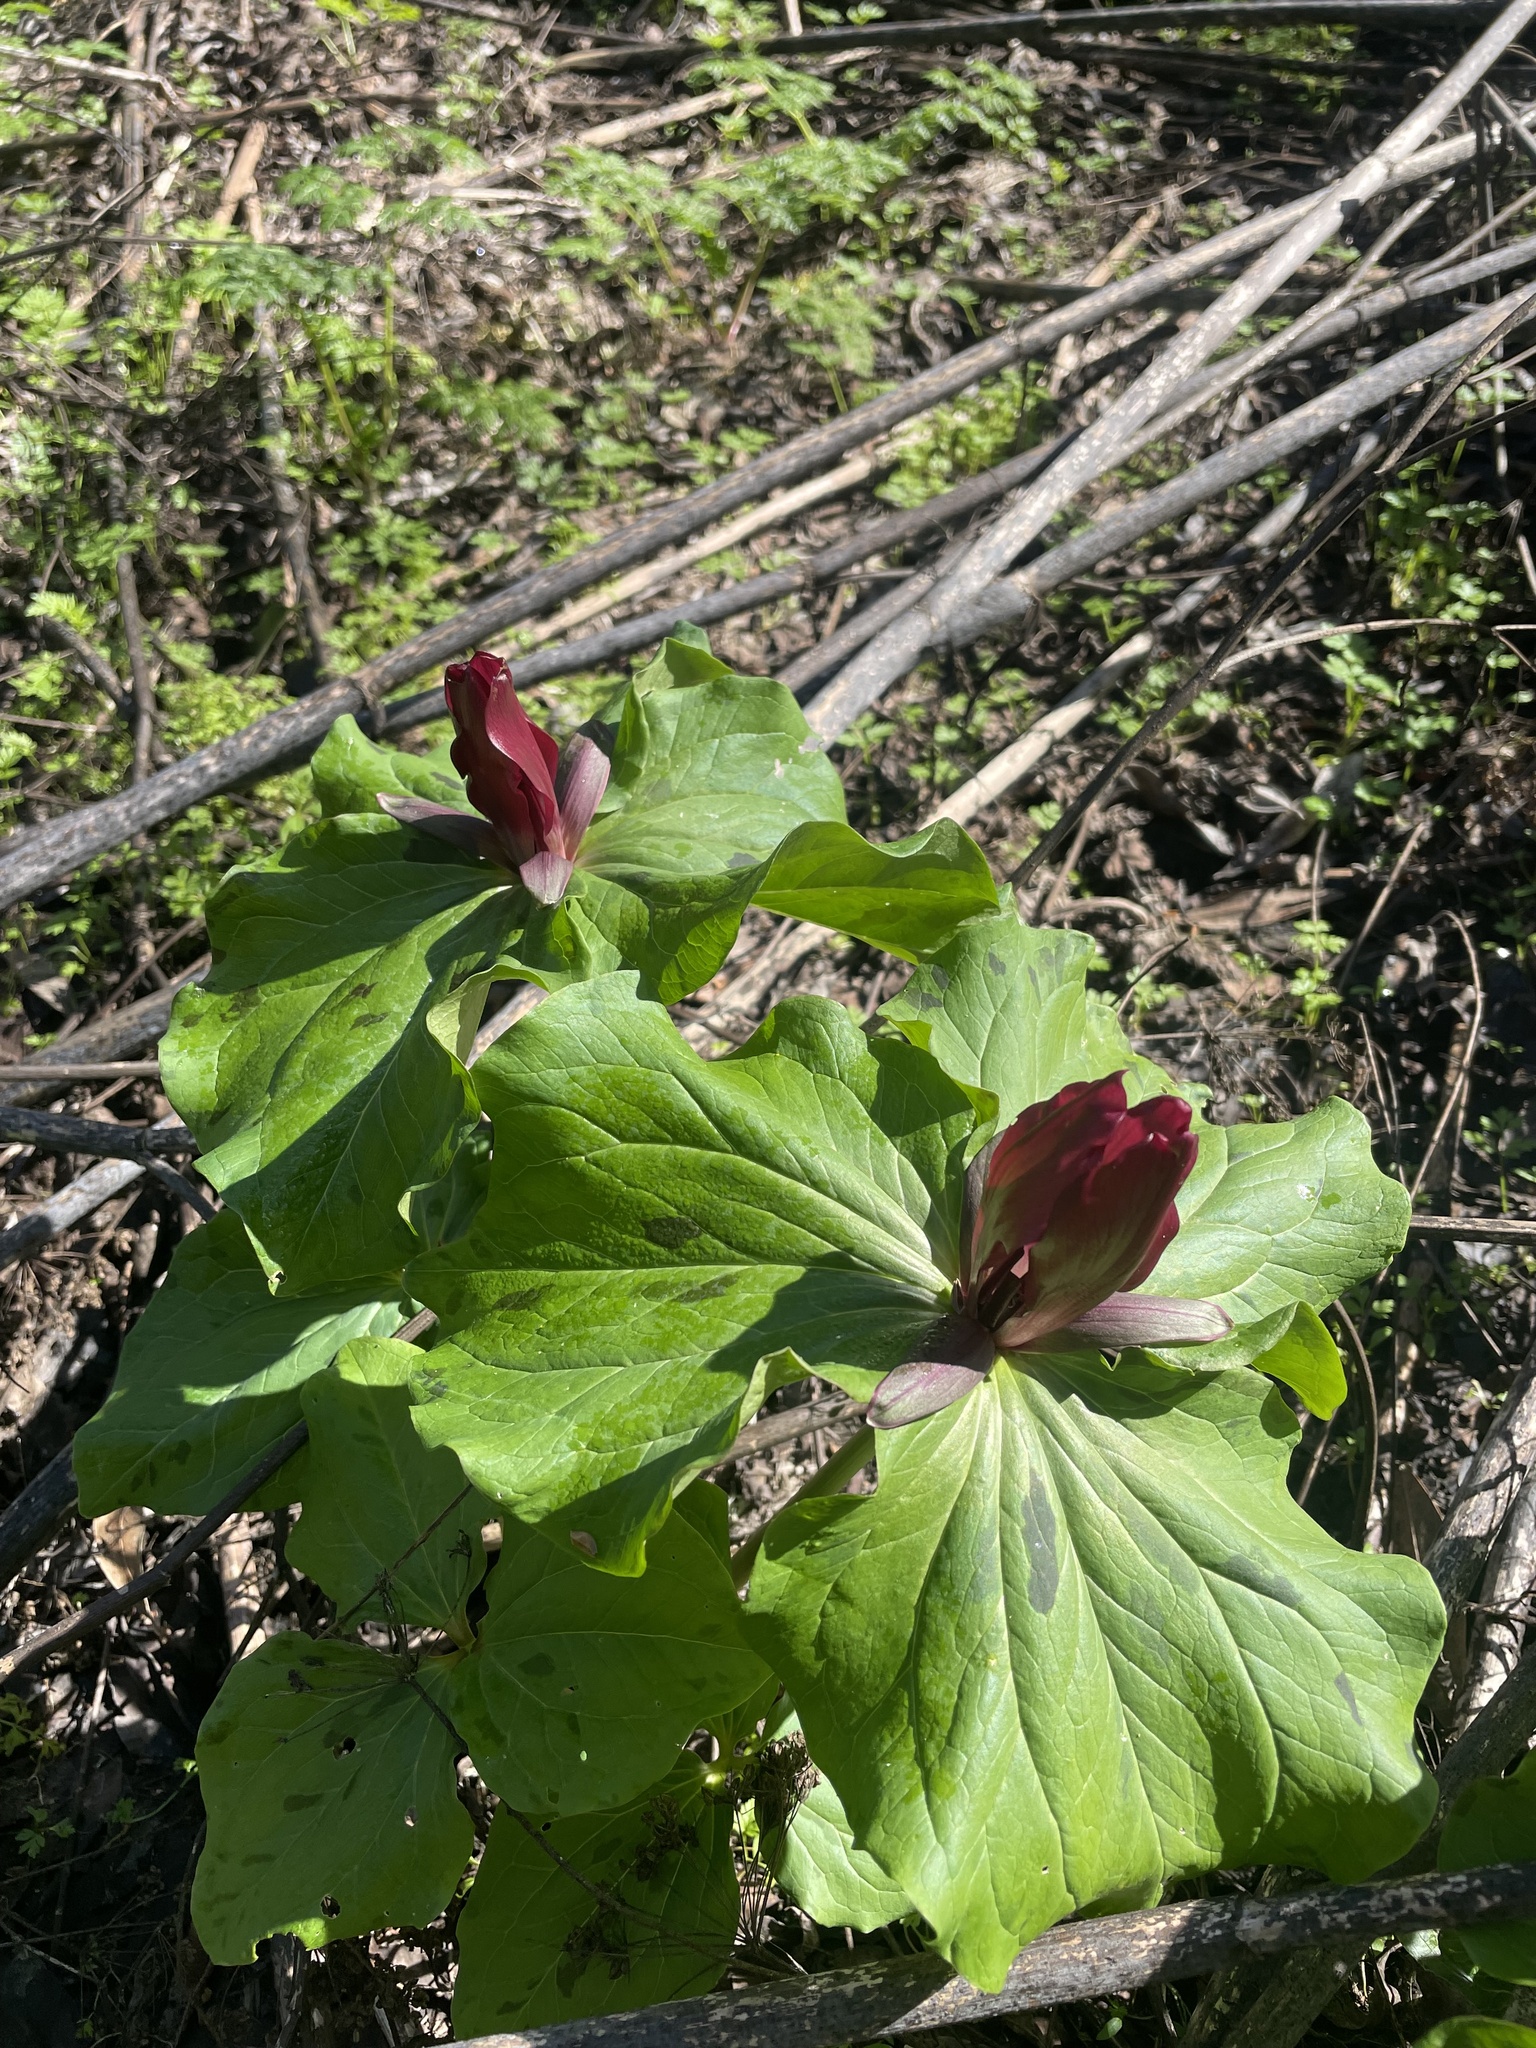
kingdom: Plantae
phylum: Tracheophyta
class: Liliopsida
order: Liliales
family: Melanthiaceae
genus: Trillium
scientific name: Trillium chloropetalum
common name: Giant trillium
